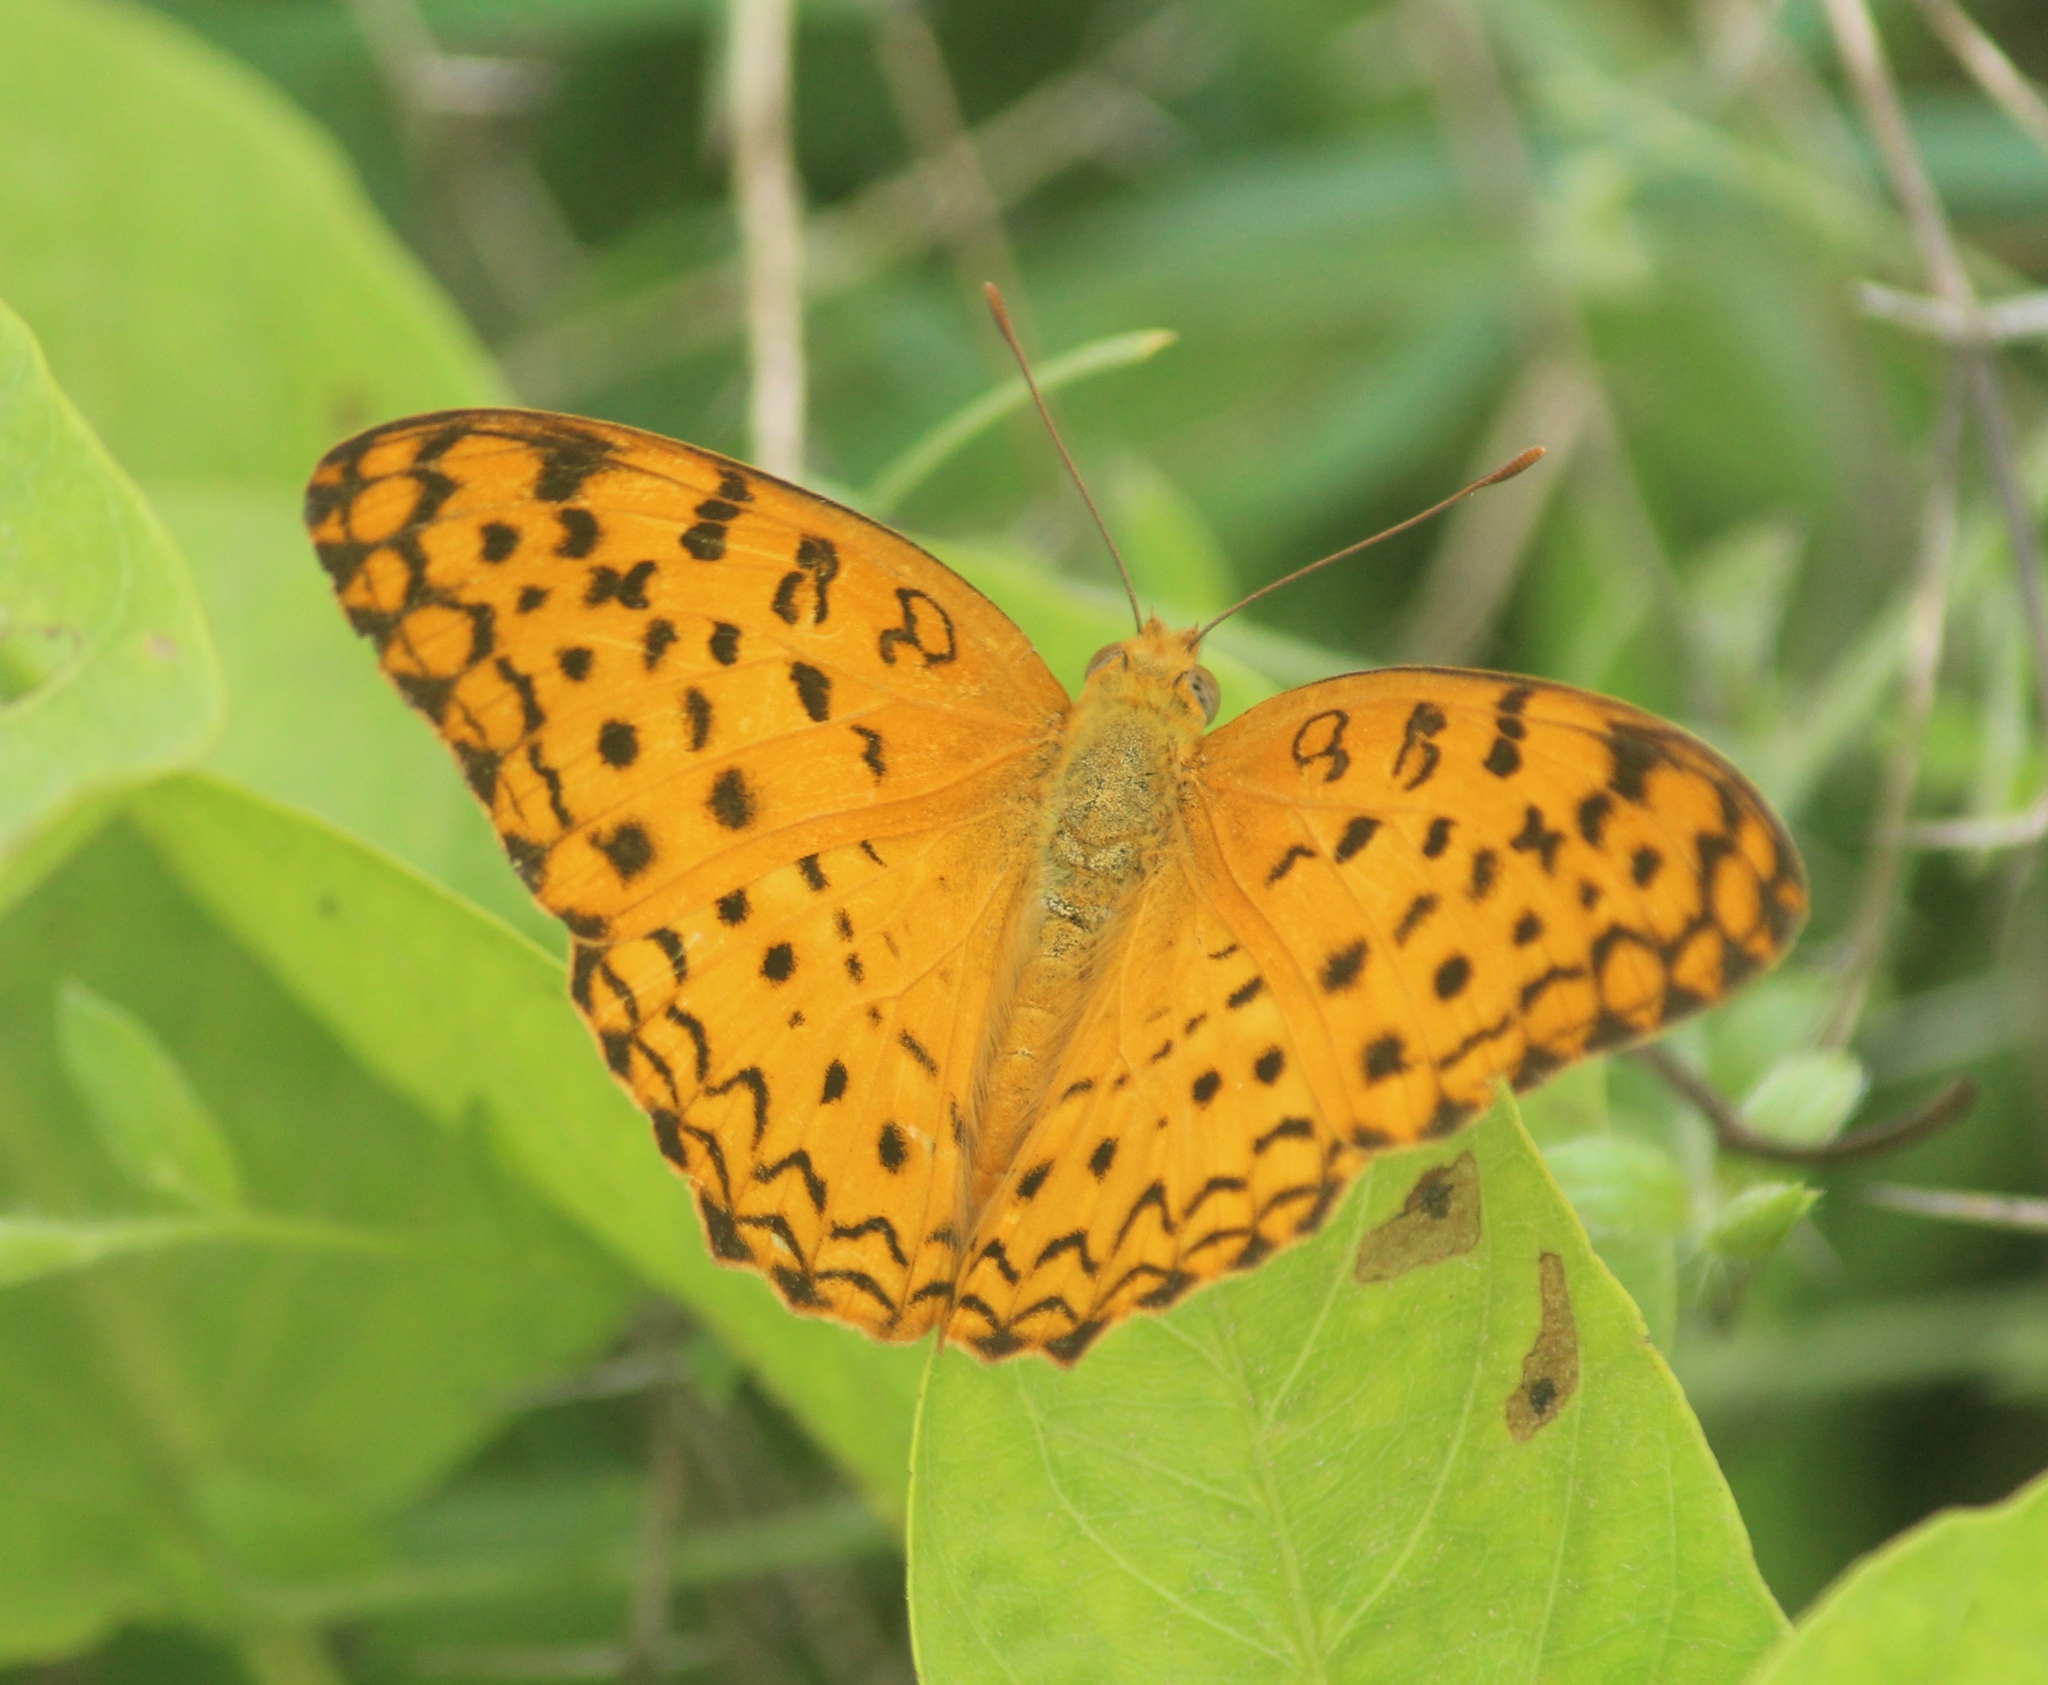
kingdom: Animalia
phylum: Arthropoda
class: Insecta
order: Lepidoptera
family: Nymphalidae
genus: Phalanta
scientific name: Phalanta phalantha
